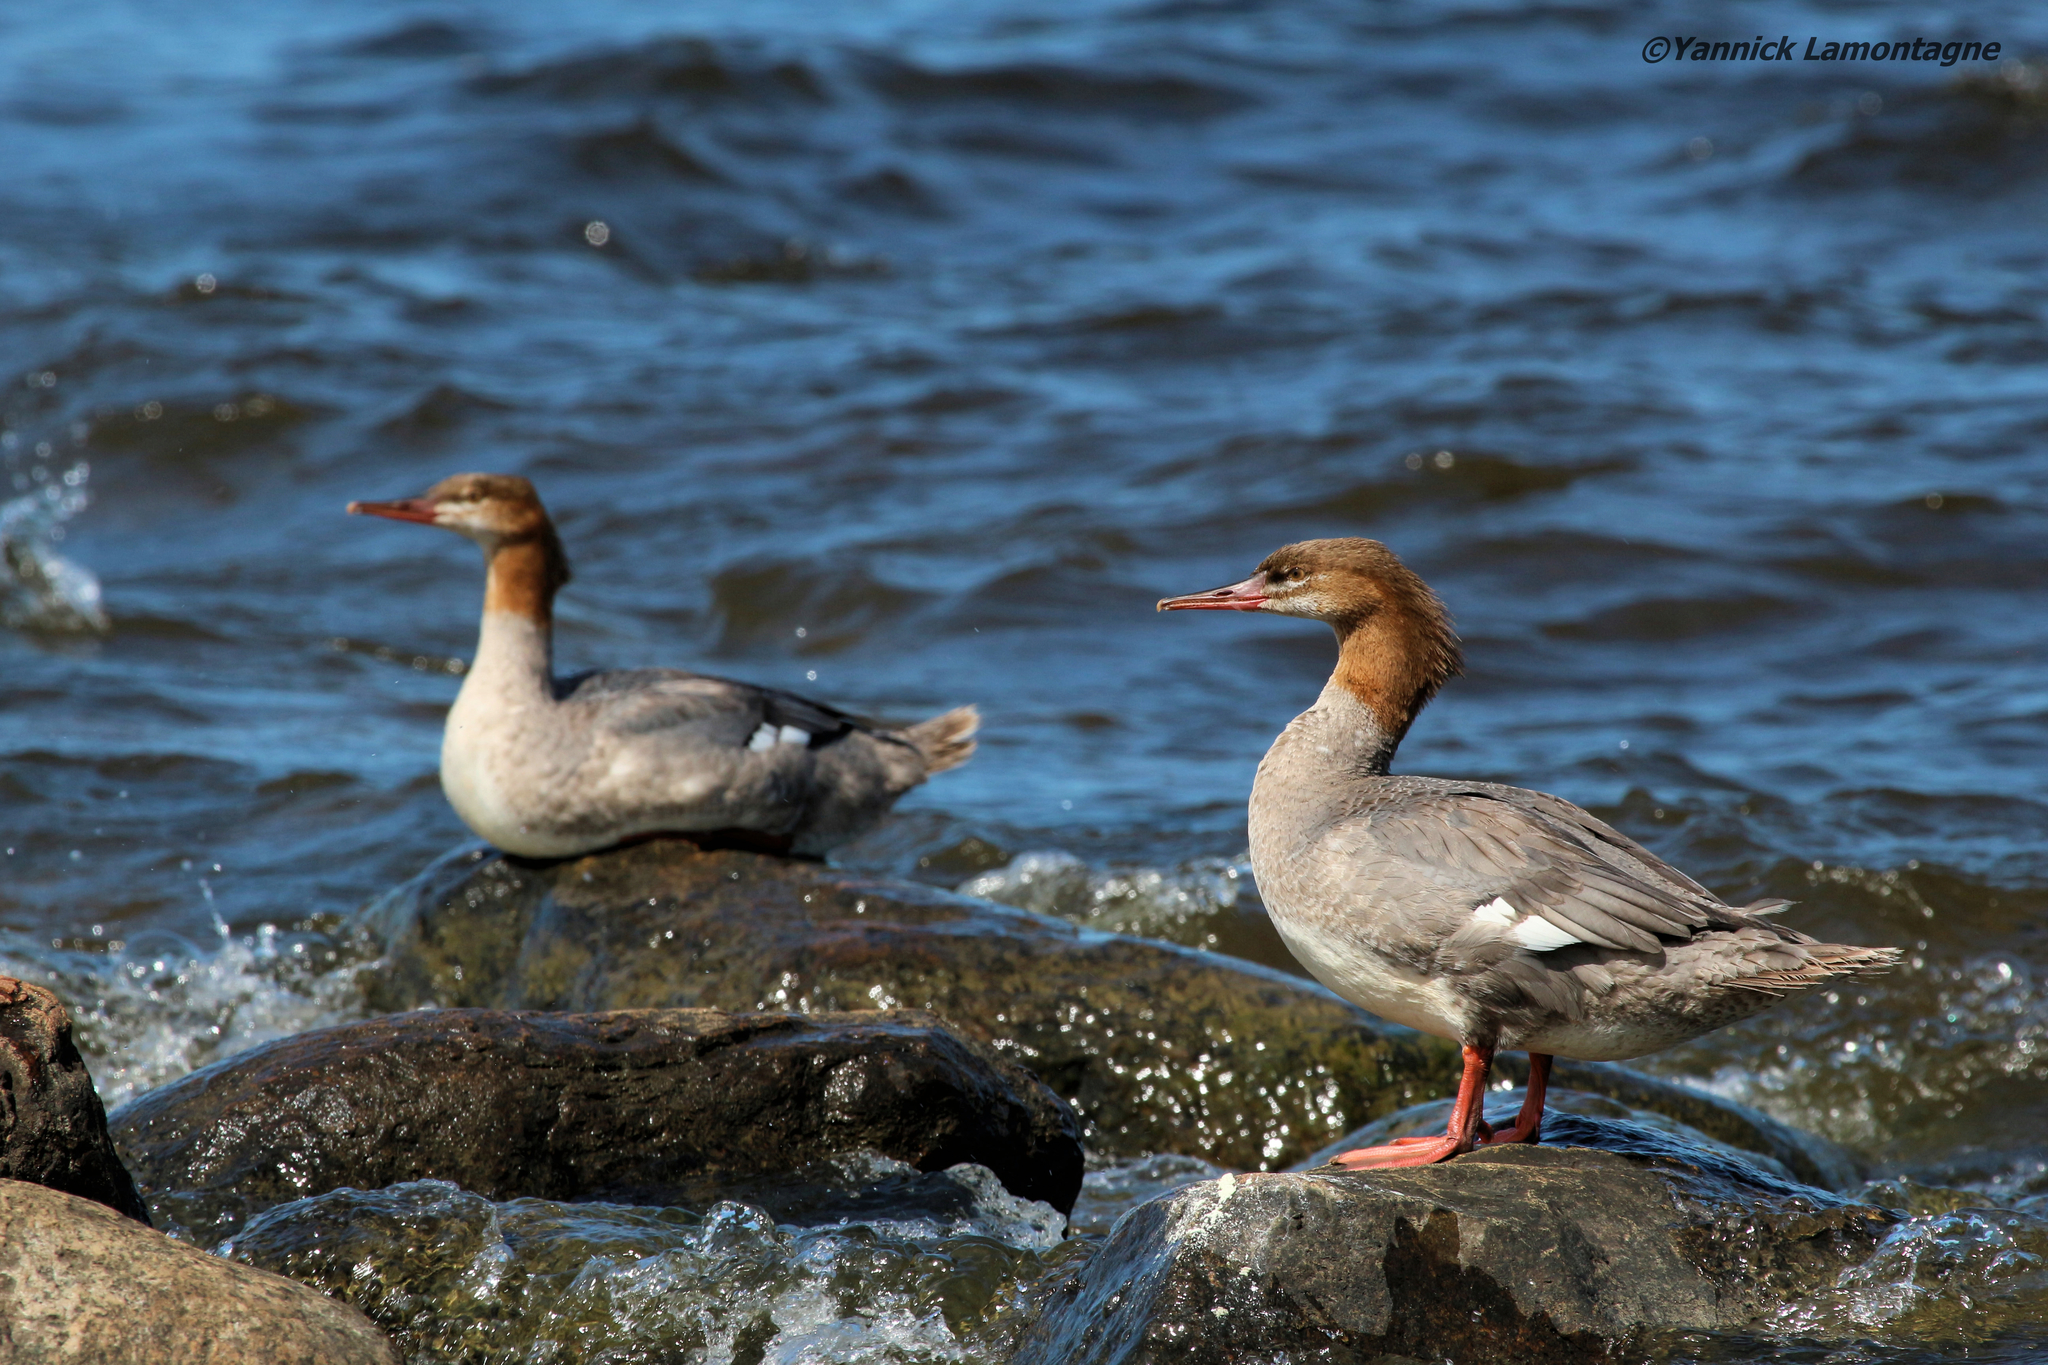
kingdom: Animalia
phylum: Chordata
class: Aves
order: Anseriformes
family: Anatidae
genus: Mergus
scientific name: Mergus merganser
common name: Common merganser
